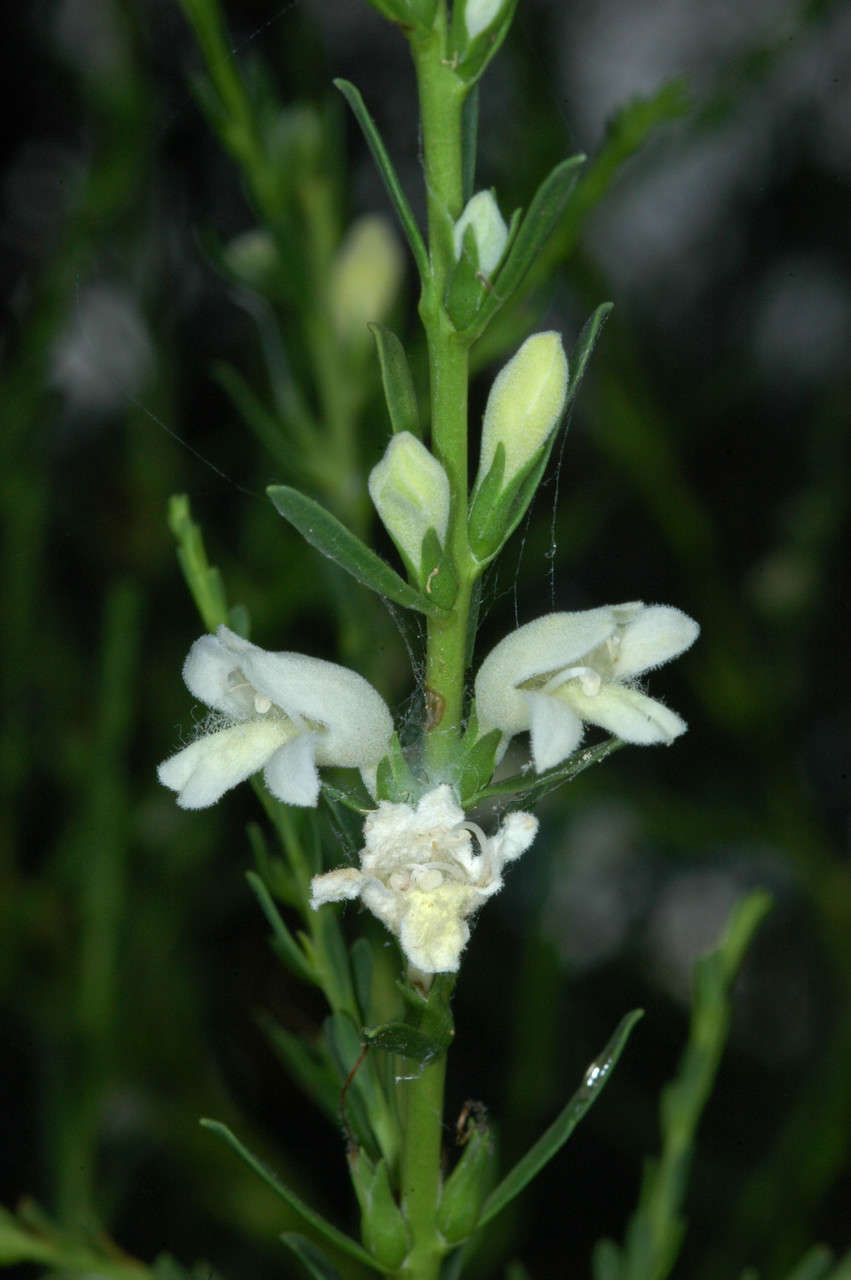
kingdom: Plantae
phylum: Tracheophyta
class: Magnoliopsida
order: Lamiales
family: Scrophulariaceae
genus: Eremophila
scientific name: Eremophila divaricata
